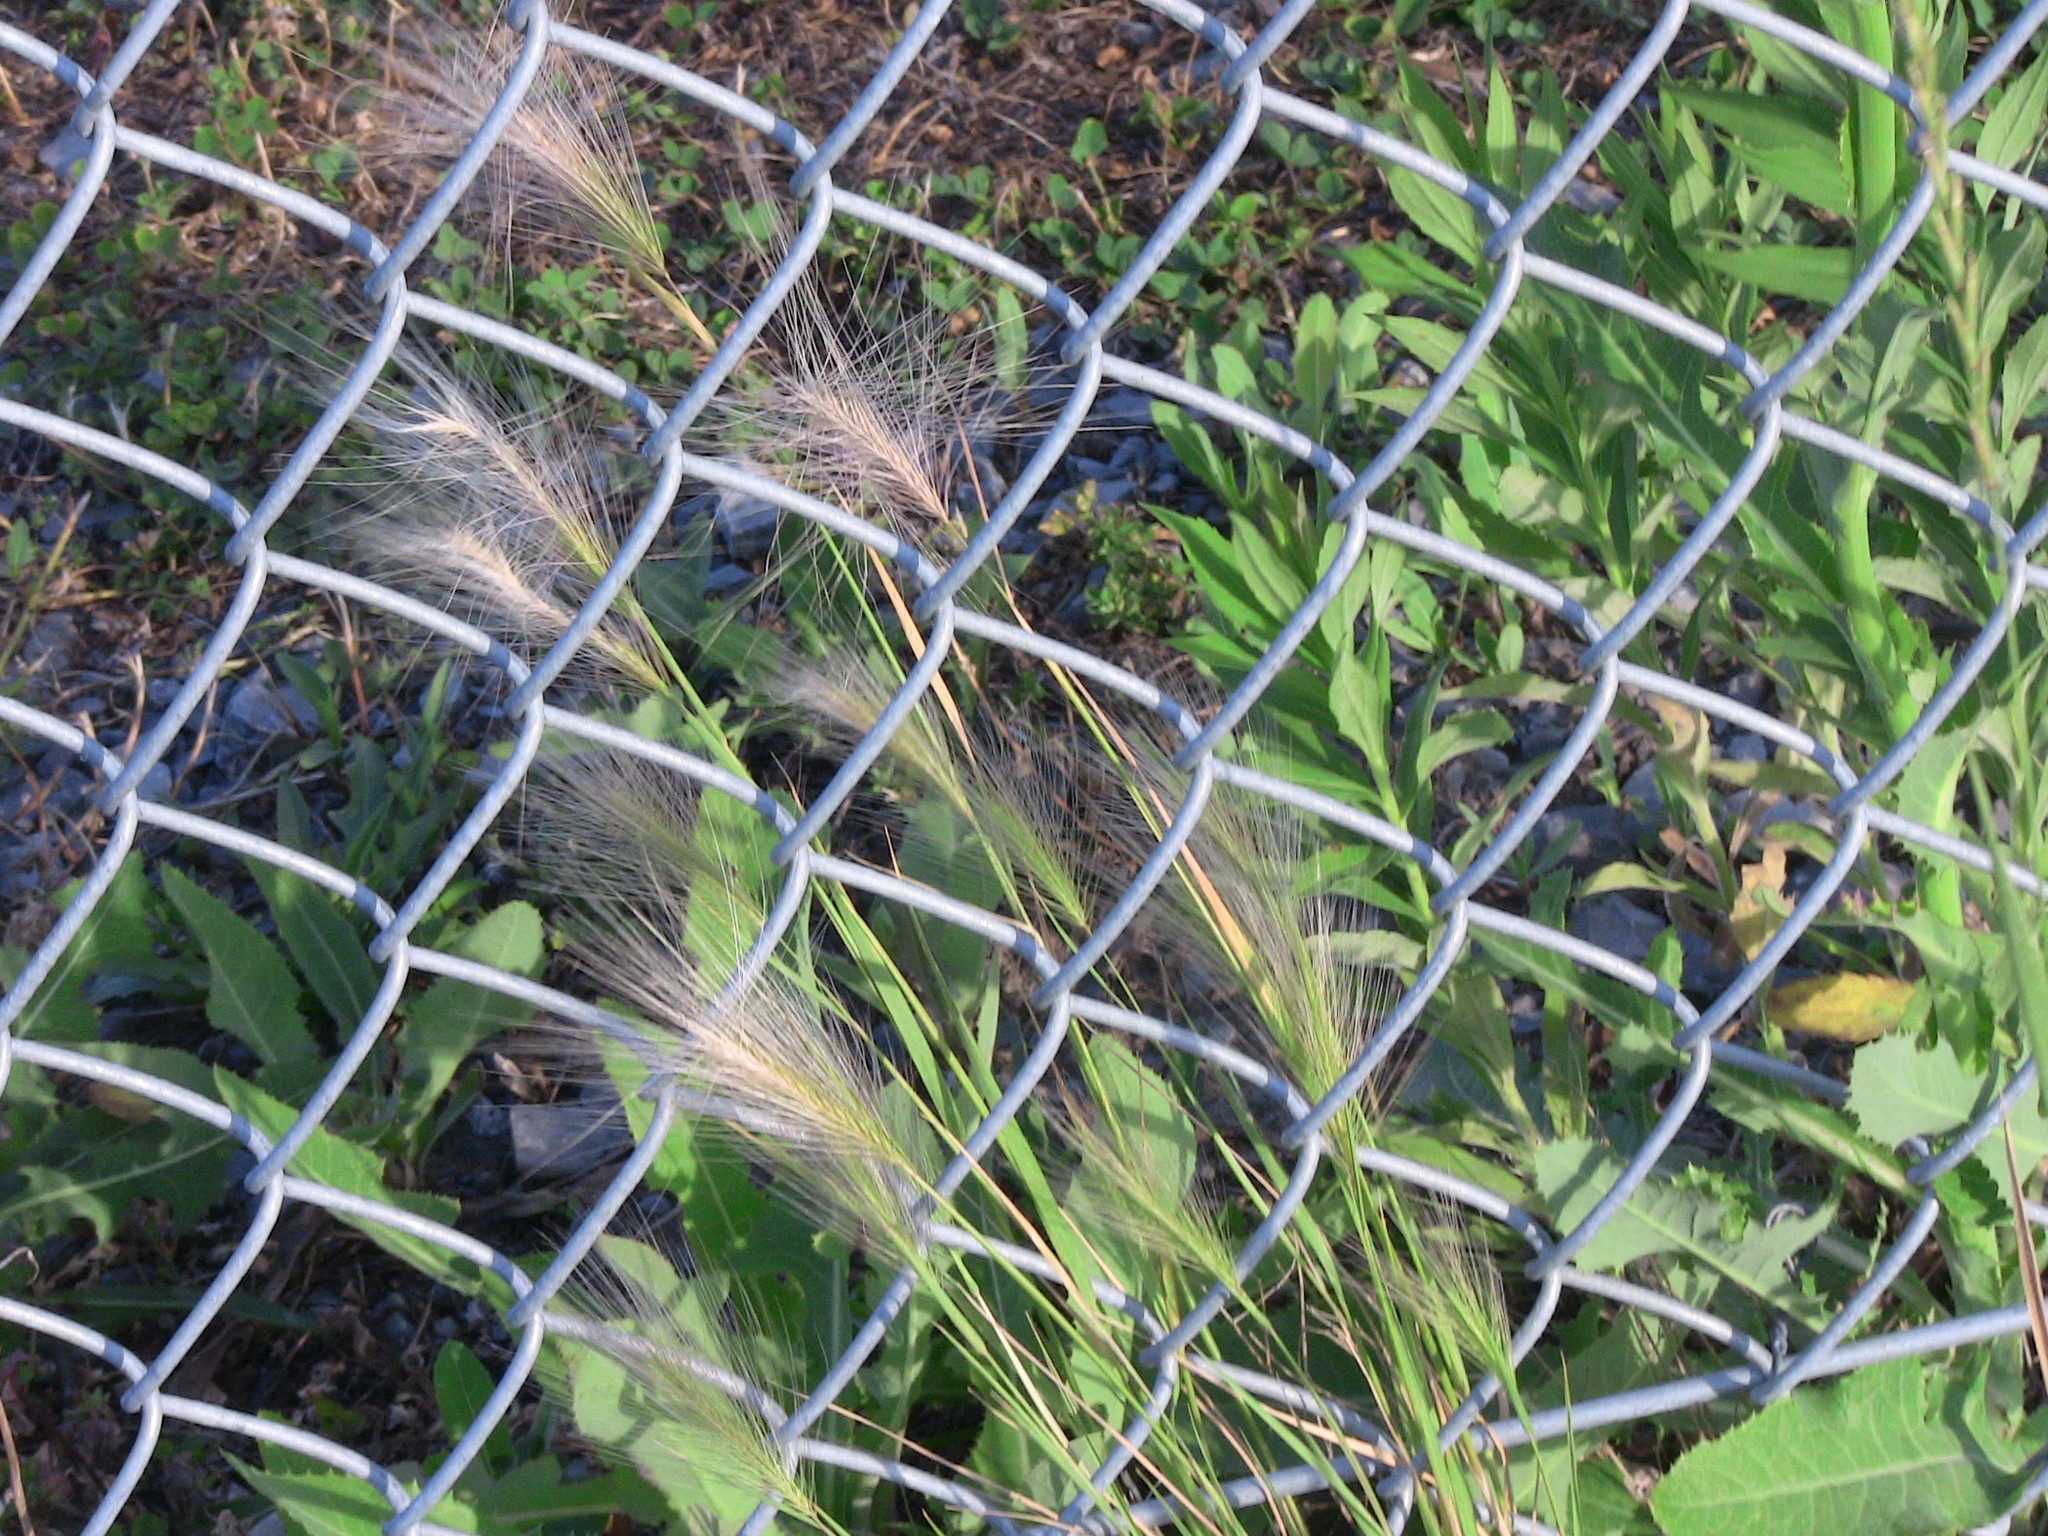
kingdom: Plantae
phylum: Tracheophyta
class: Liliopsida
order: Poales
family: Poaceae
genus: Hordeum
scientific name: Hordeum jubatum
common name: Foxtail barley
